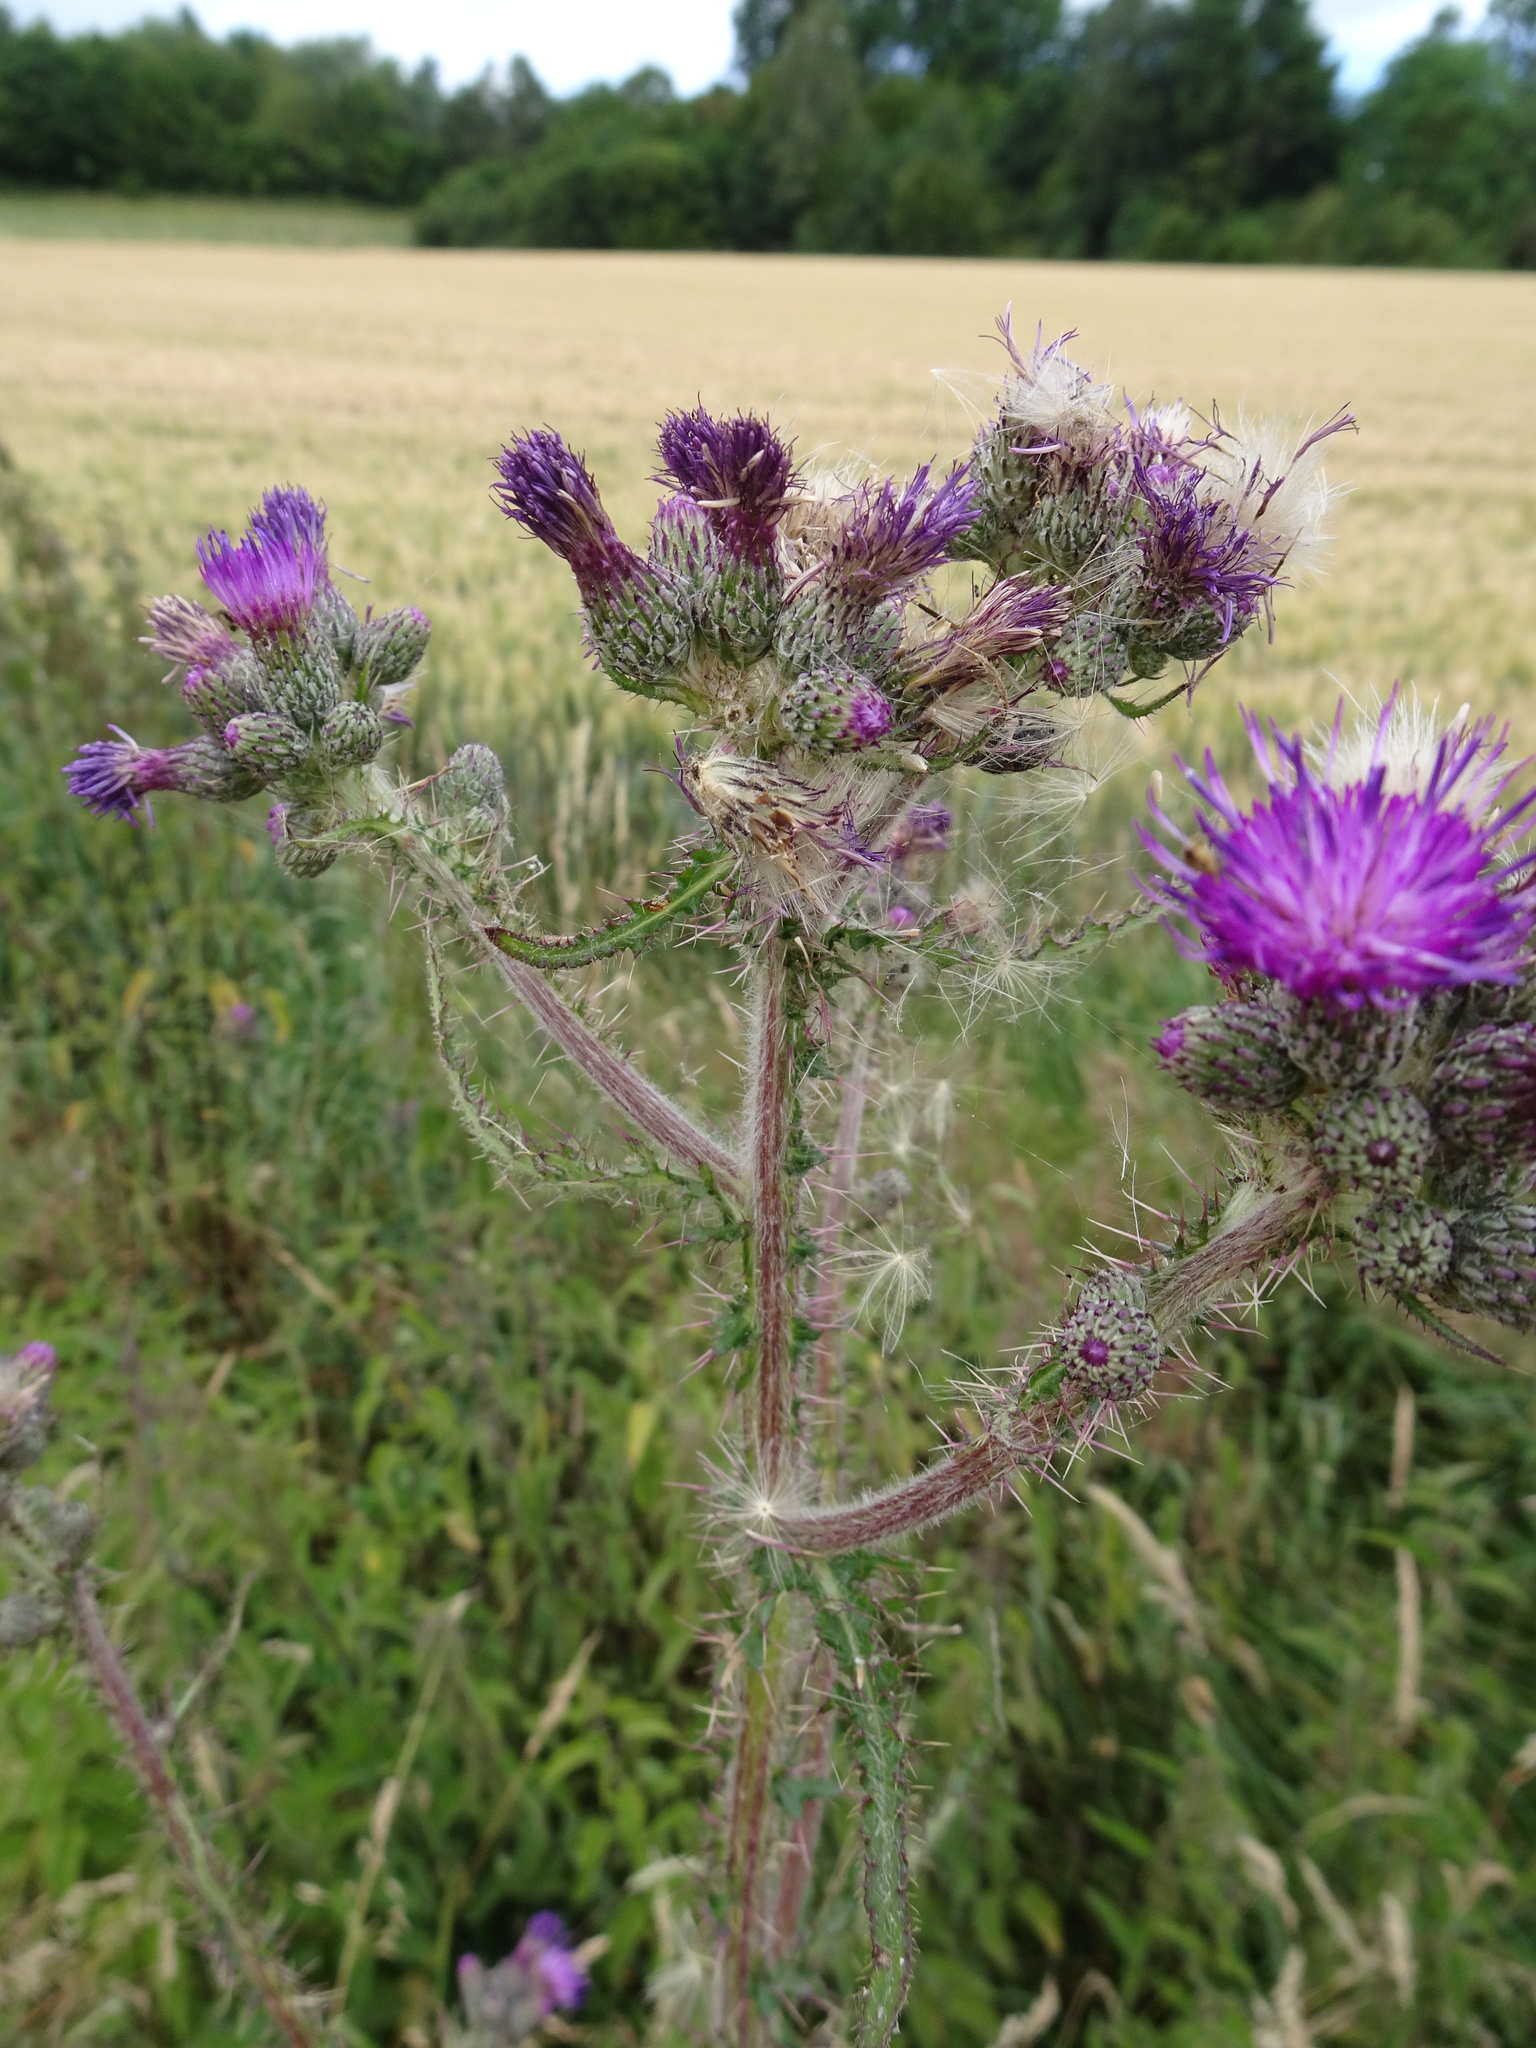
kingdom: Plantae
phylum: Tracheophyta
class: Magnoliopsida
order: Asterales
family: Asteraceae
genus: Cirsium
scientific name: Cirsium palustre
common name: Marsh thistle
